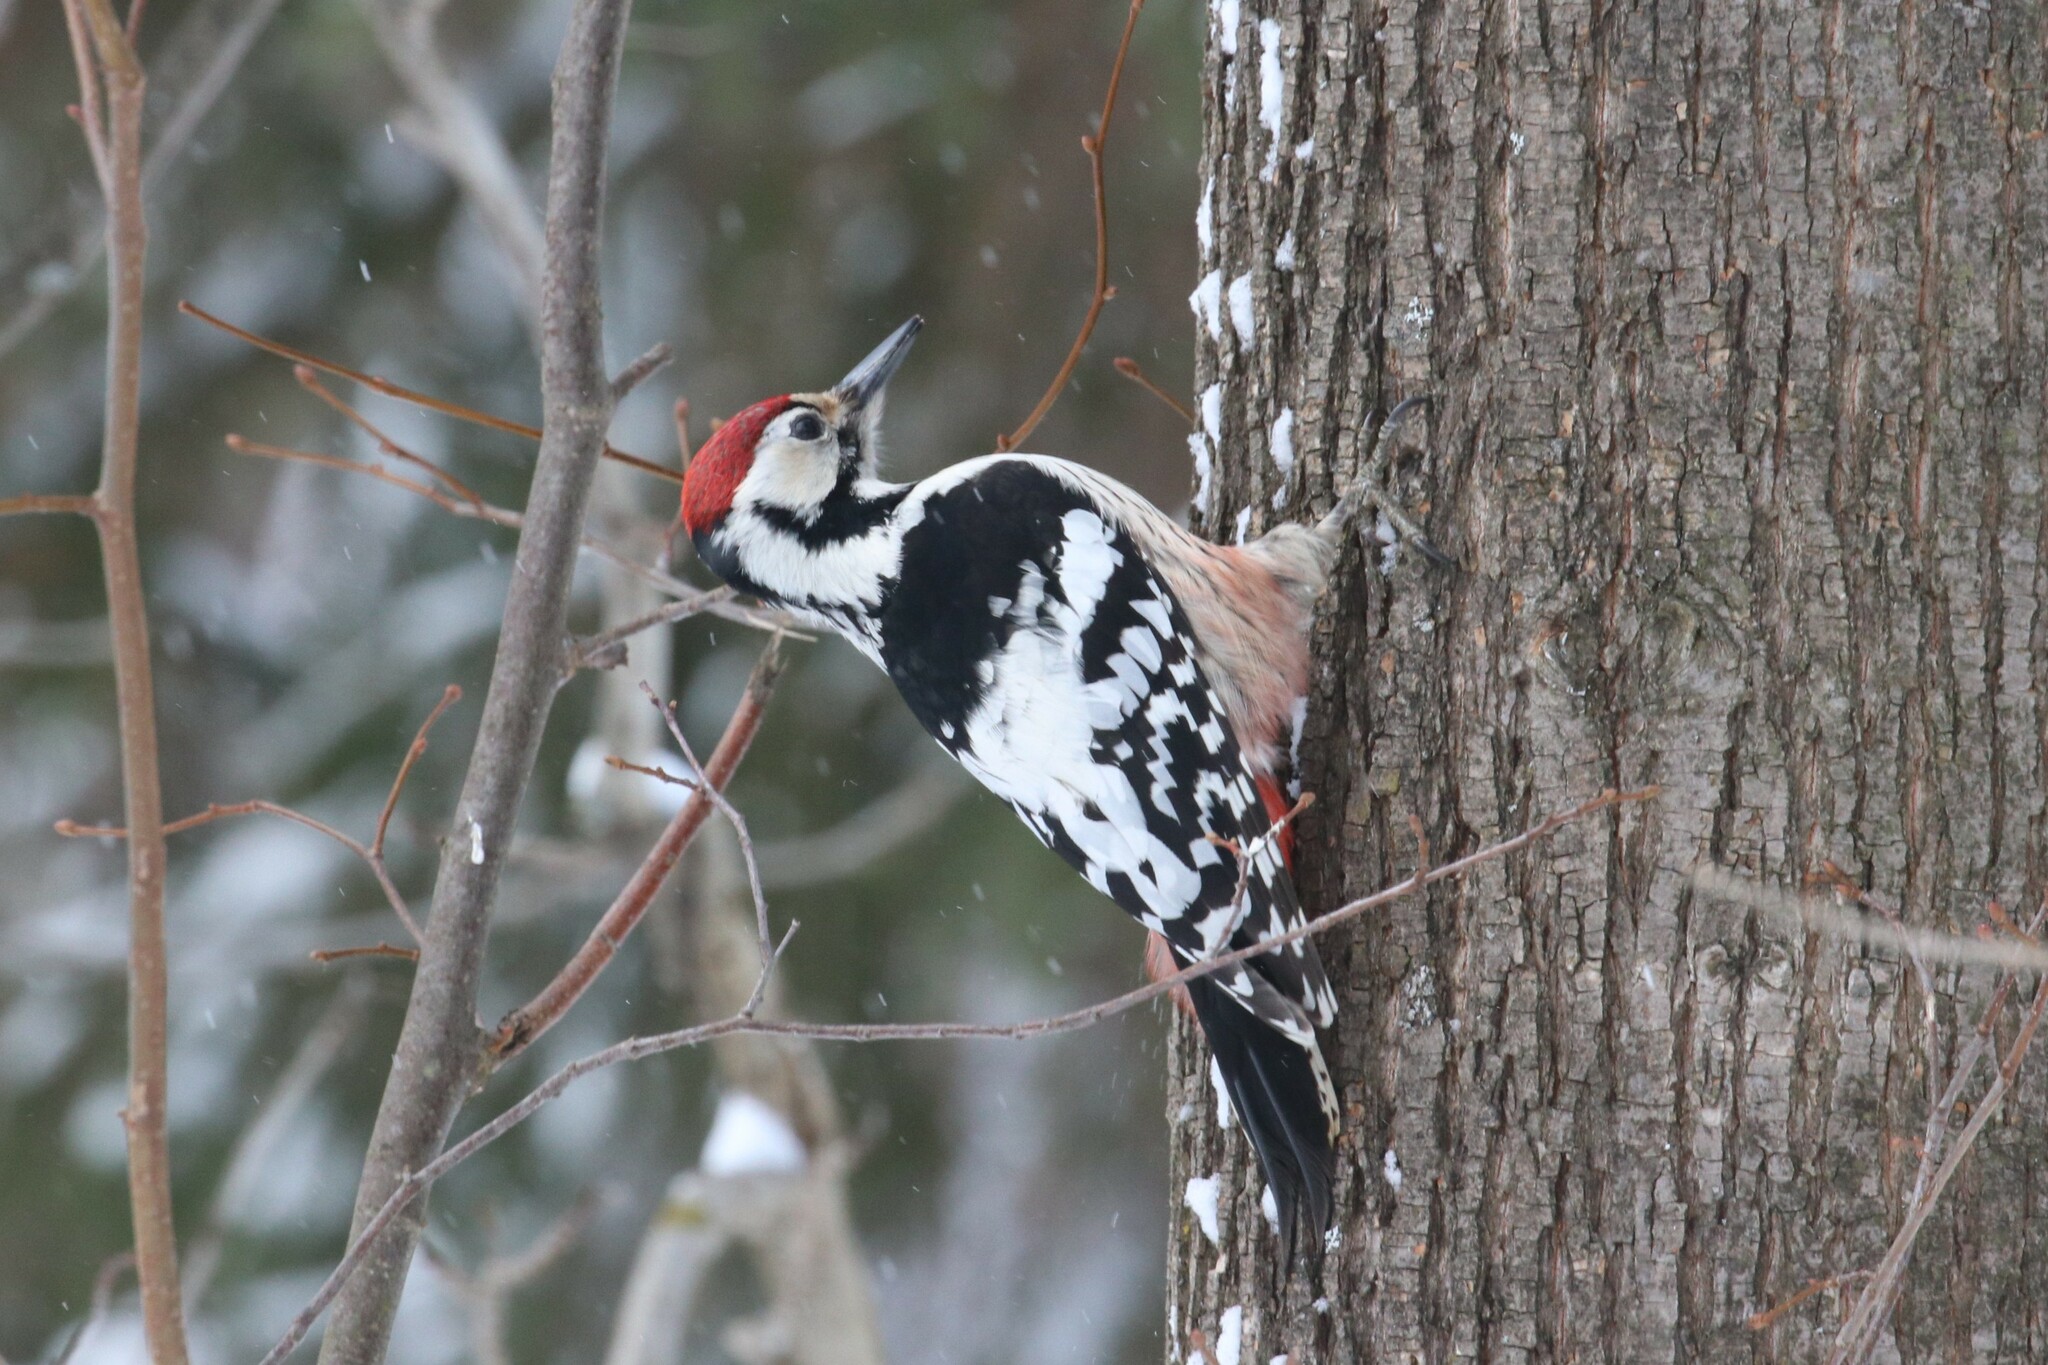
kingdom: Animalia
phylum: Chordata
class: Aves
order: Piciformes
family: Picidae
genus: Dendrocopos
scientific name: Dendrocopos leucotos
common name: White-backed woodpecker
